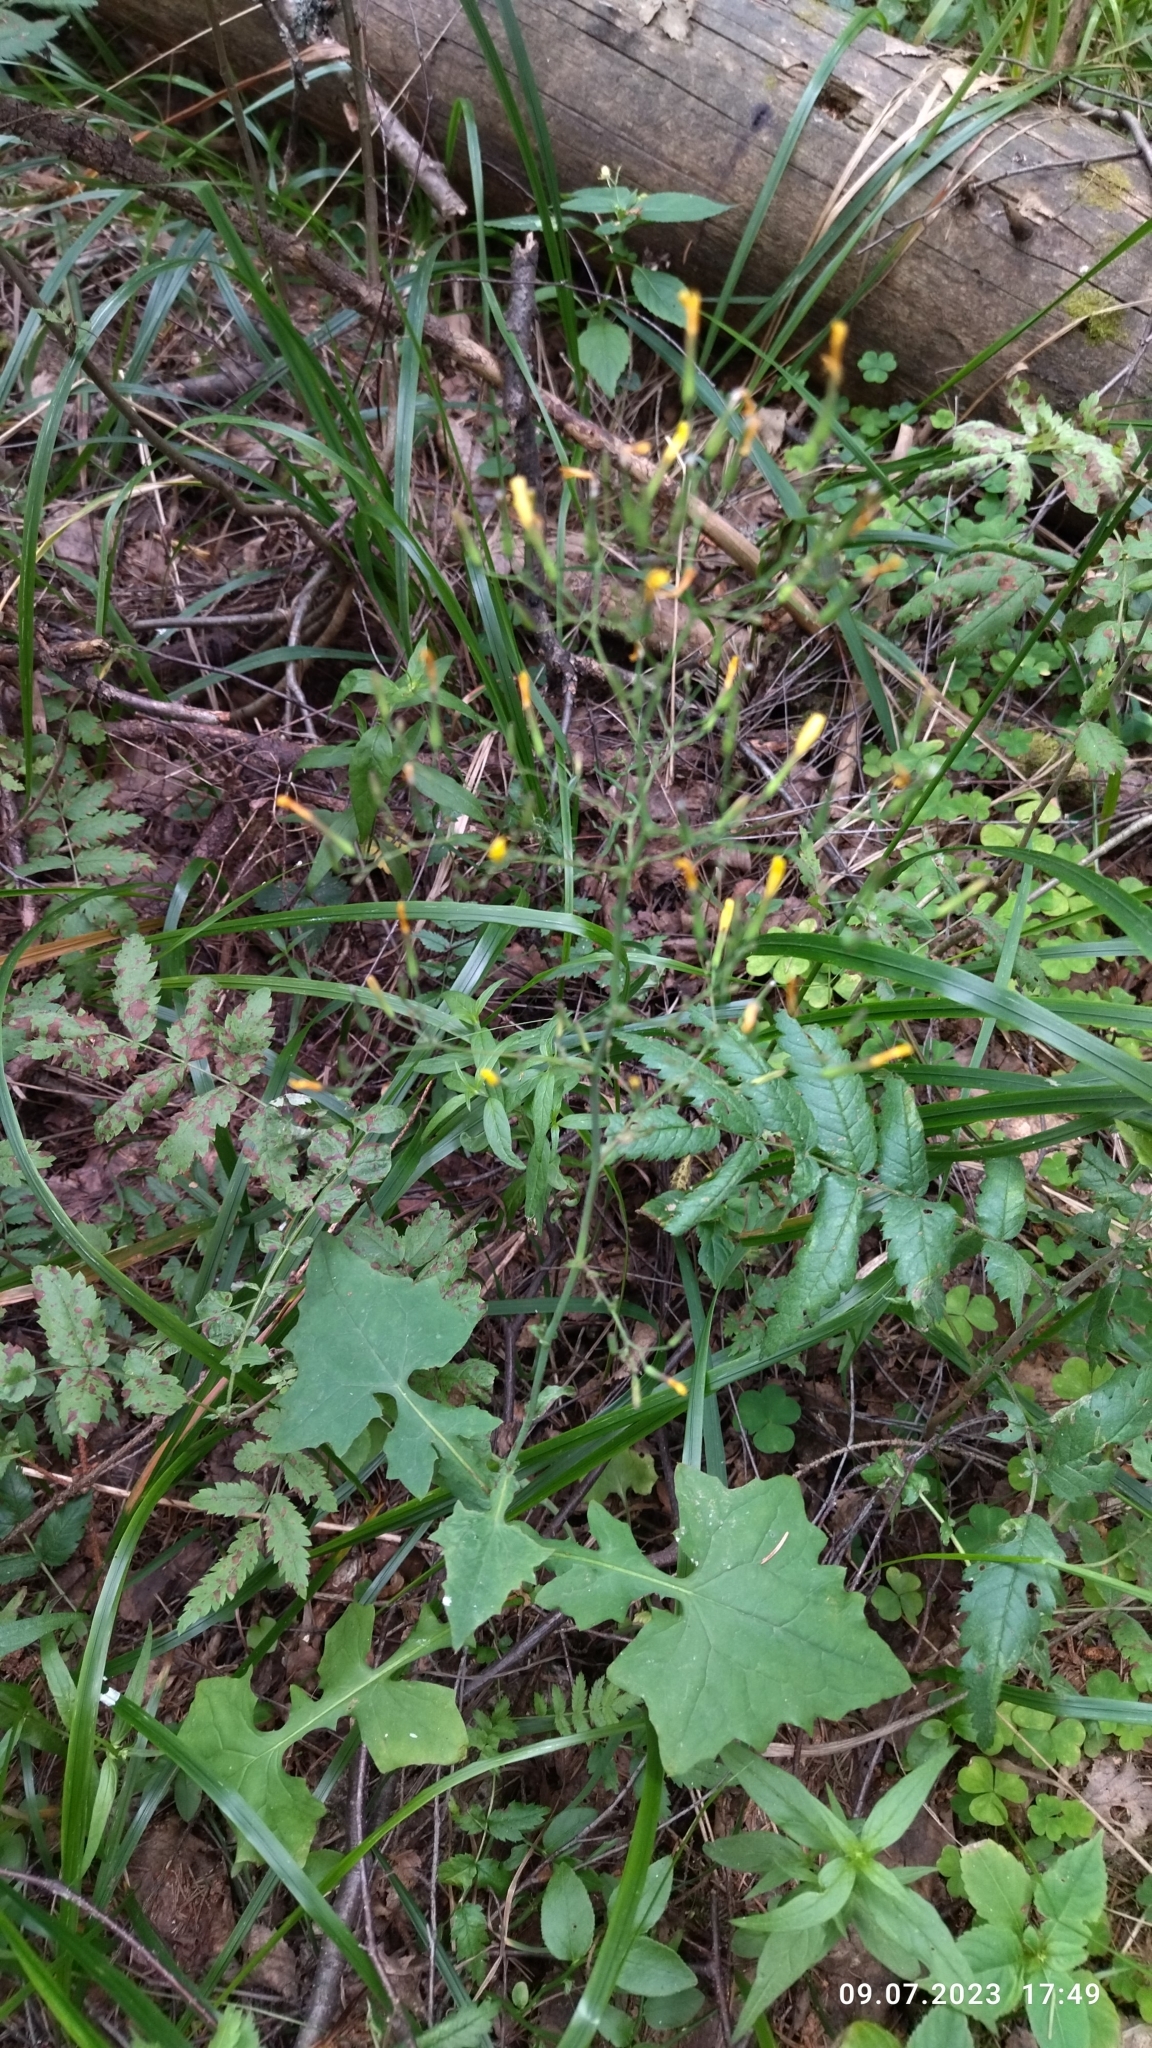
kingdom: Plantae
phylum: Tracheophyta
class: Magnoliopsida
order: Asterales
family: Asteraceae
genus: Mycelis
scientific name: Mycelis muralis
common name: Wall lettuce
